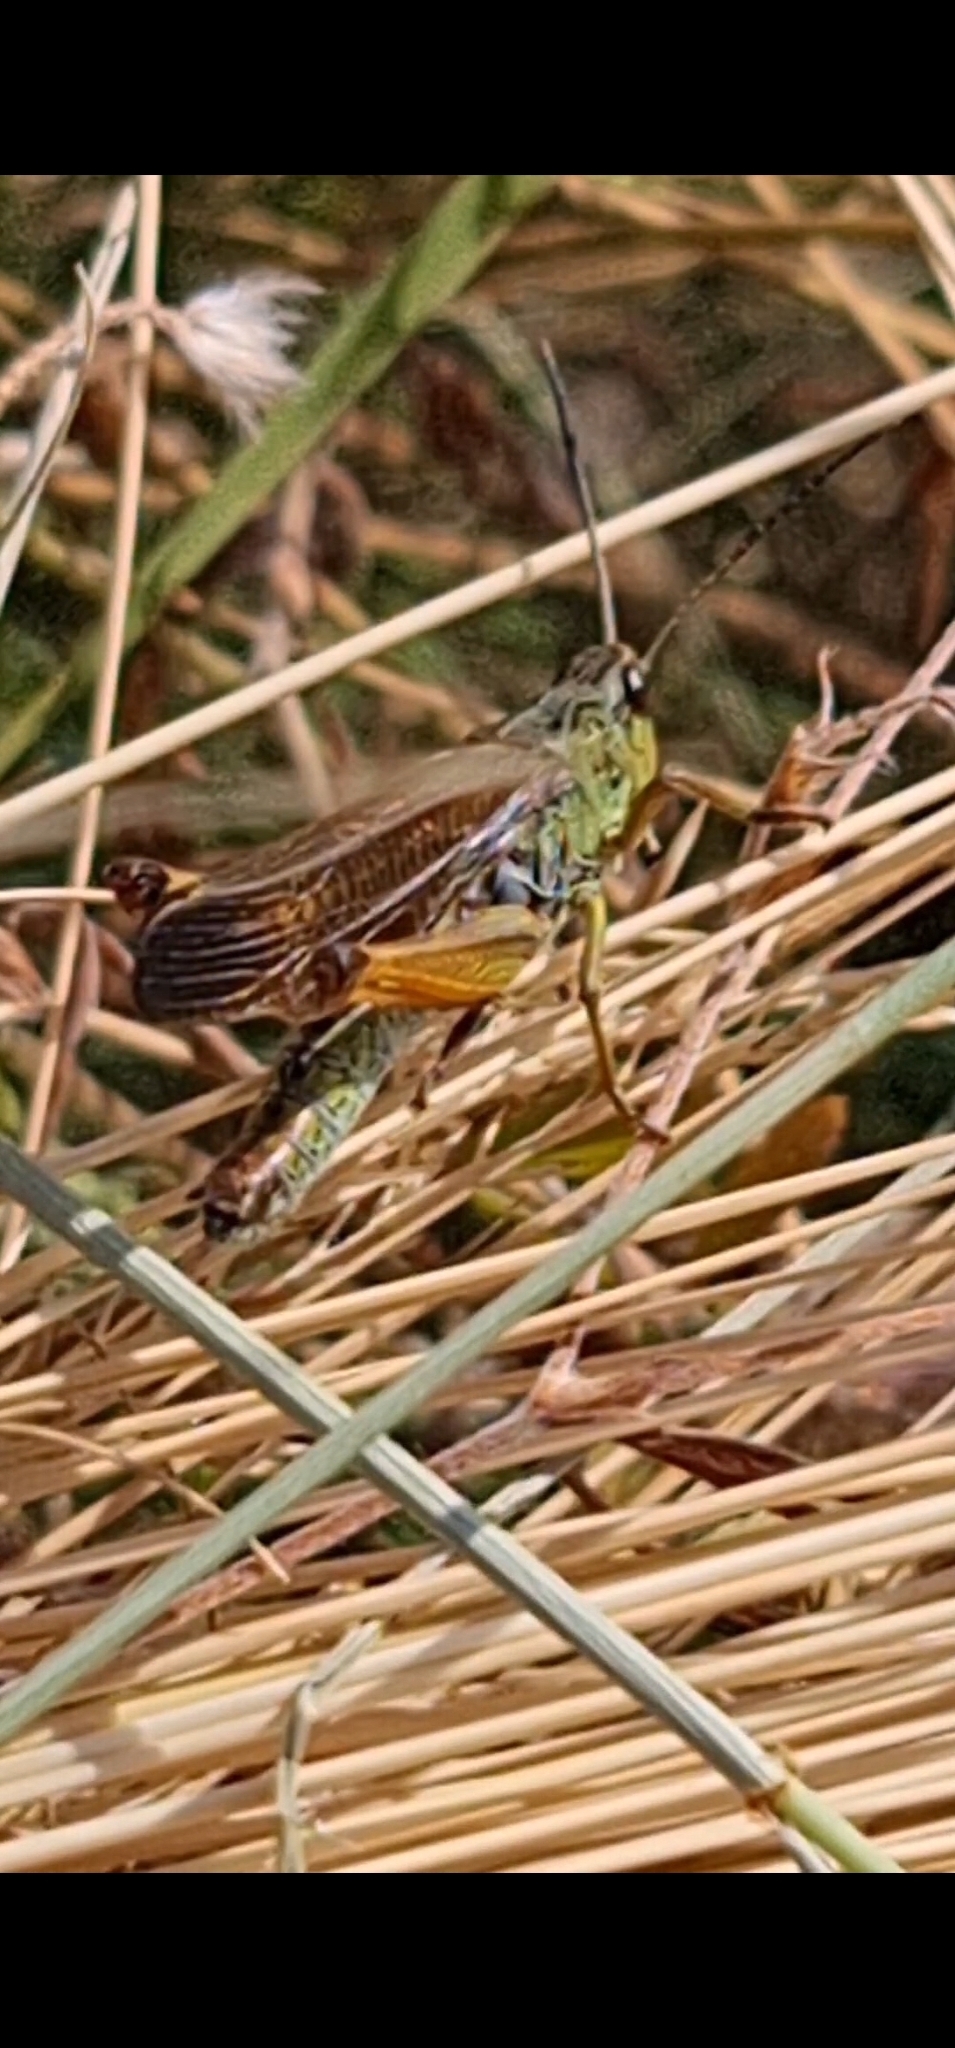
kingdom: Animalia
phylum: Arthropoda
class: Insecta
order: Orthoptera
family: Acrididae
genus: Stauroderus
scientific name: Stauroderus scalaris
